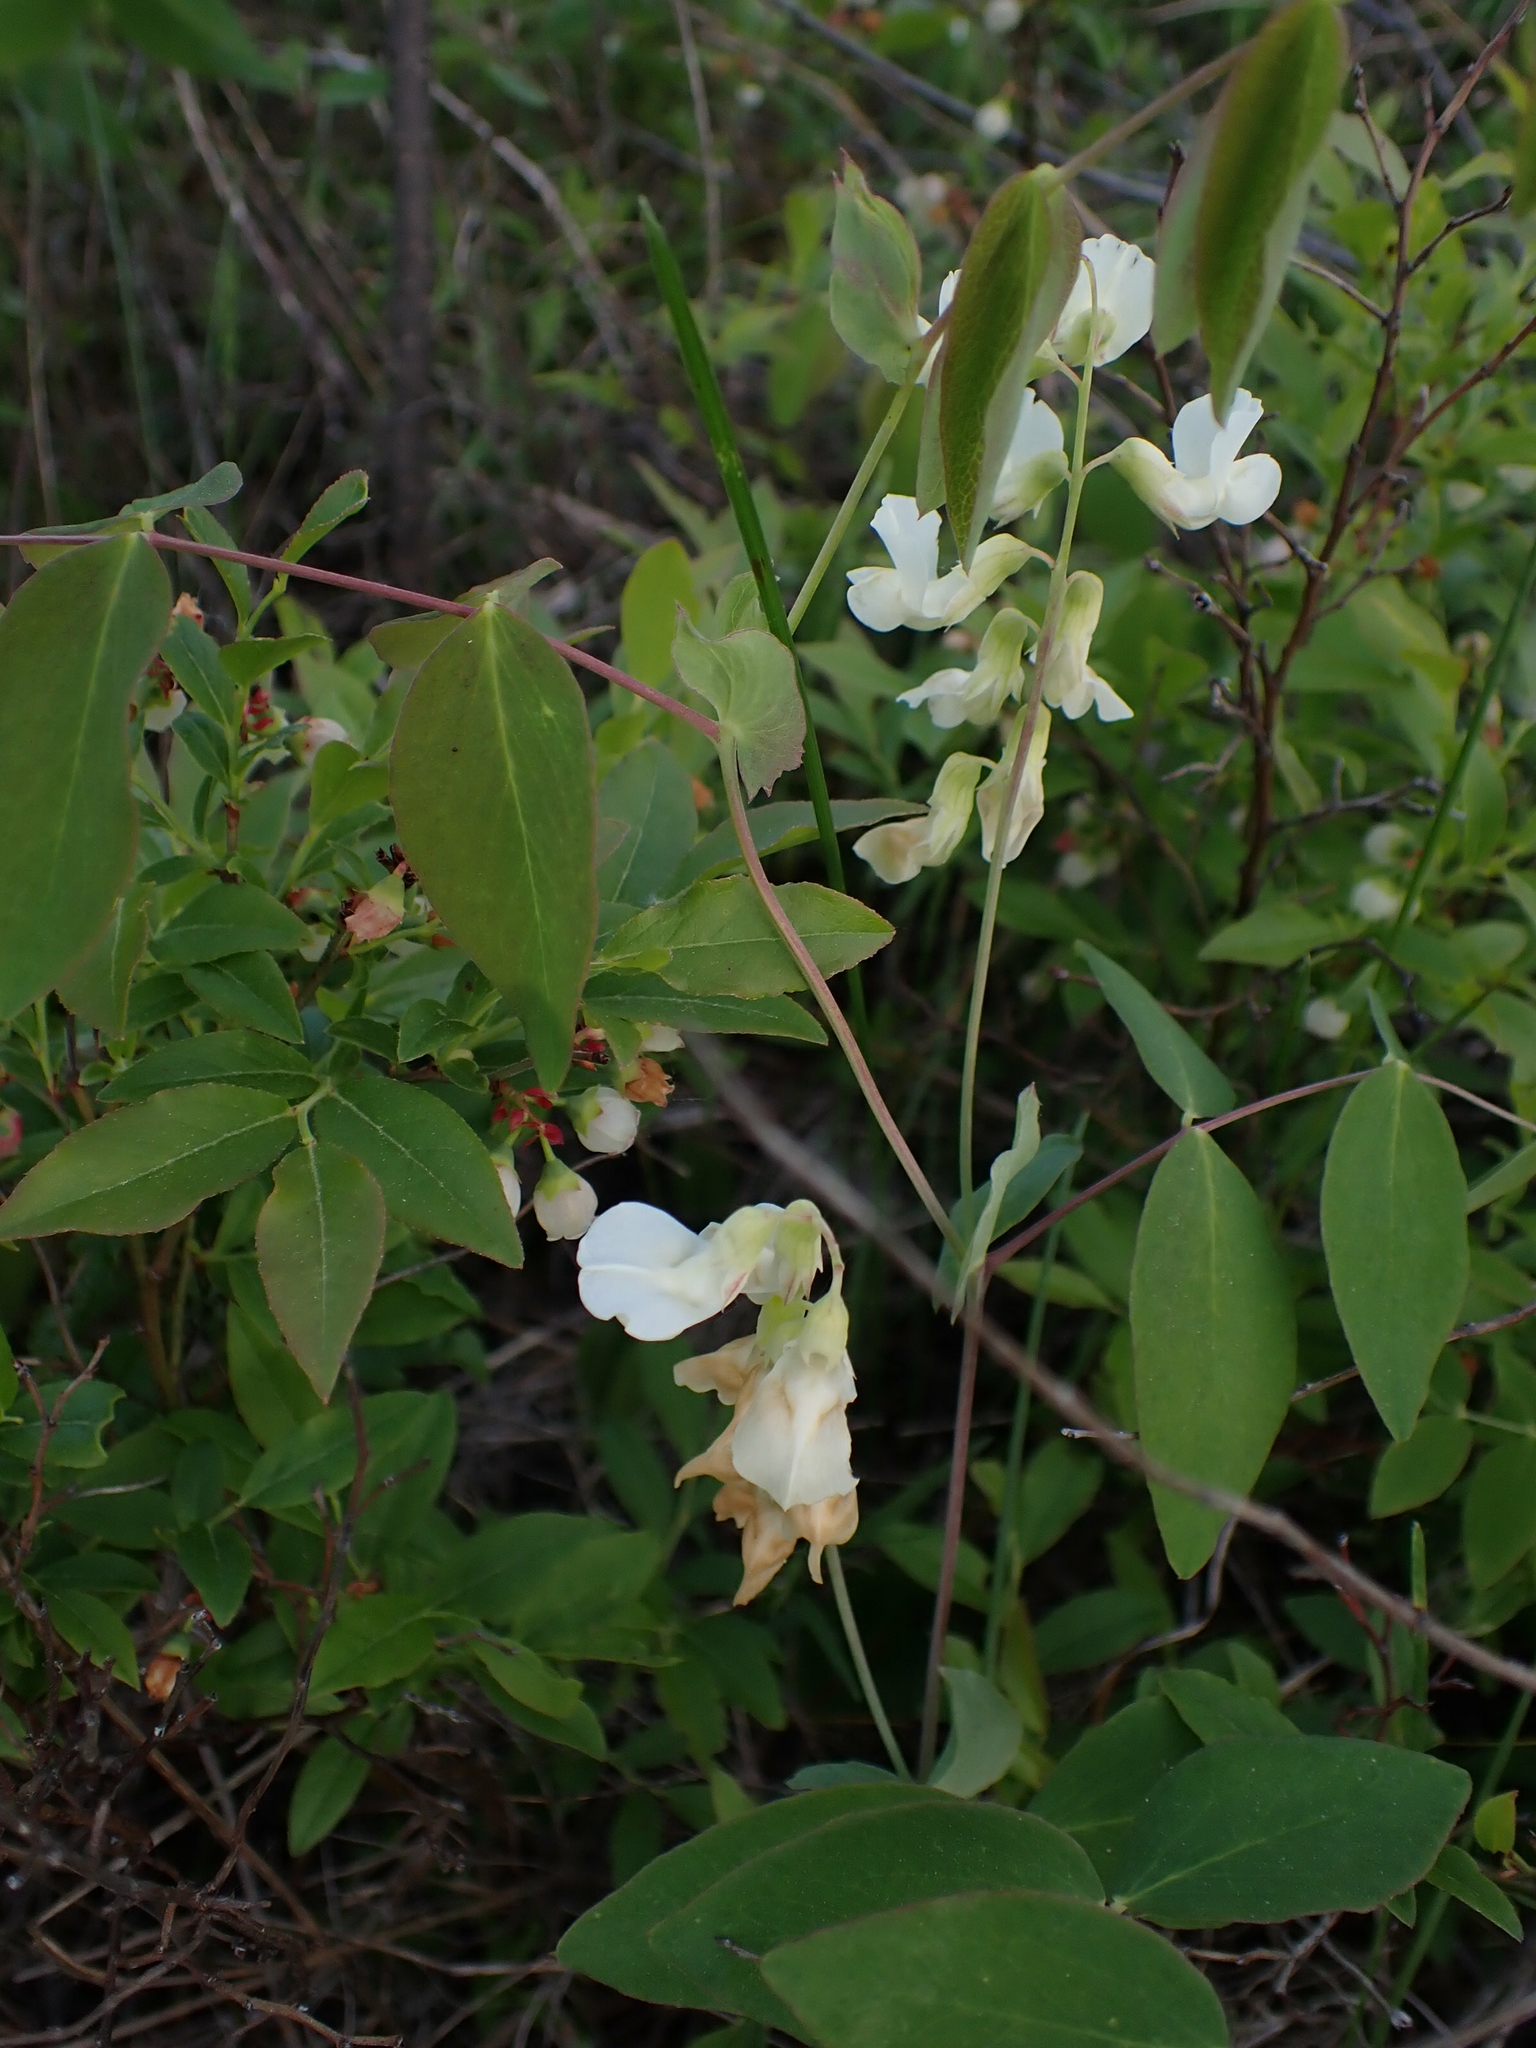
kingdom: Plantae
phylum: Tracheophyta
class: Magnoliopsida
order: Fabales
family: Fabaceae
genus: Lathyrus
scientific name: Lathyrus ochroleucus
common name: Pale vetchling
